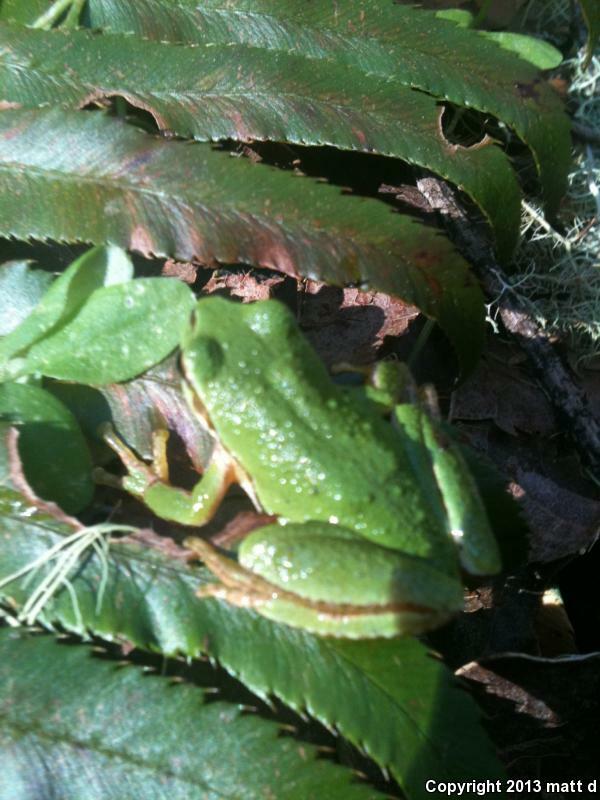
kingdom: Animalia
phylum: Chordata
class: Amphibia
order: Anura
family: Hylidae
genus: Pseudacris
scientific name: Pseudacris regilla
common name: Pacific chorus frog
